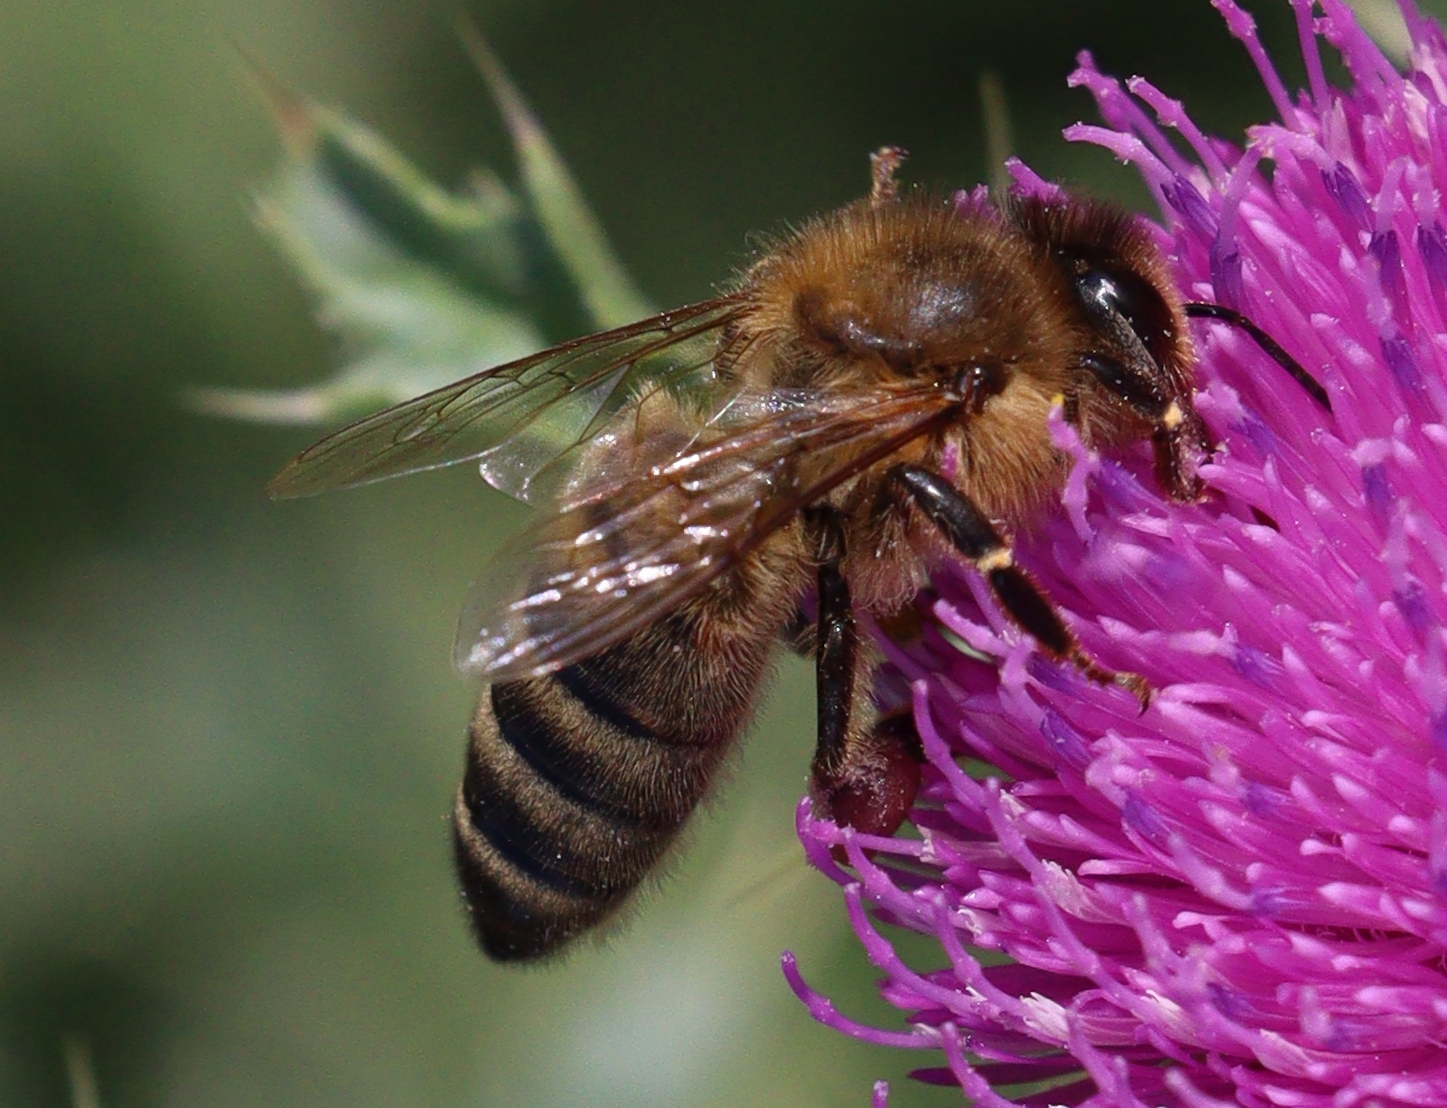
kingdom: Animalia
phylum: Arthropoda
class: Insecta
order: Hymenoptera
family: Apidae
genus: Apis
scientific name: Apis mellifera
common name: Honey bee
